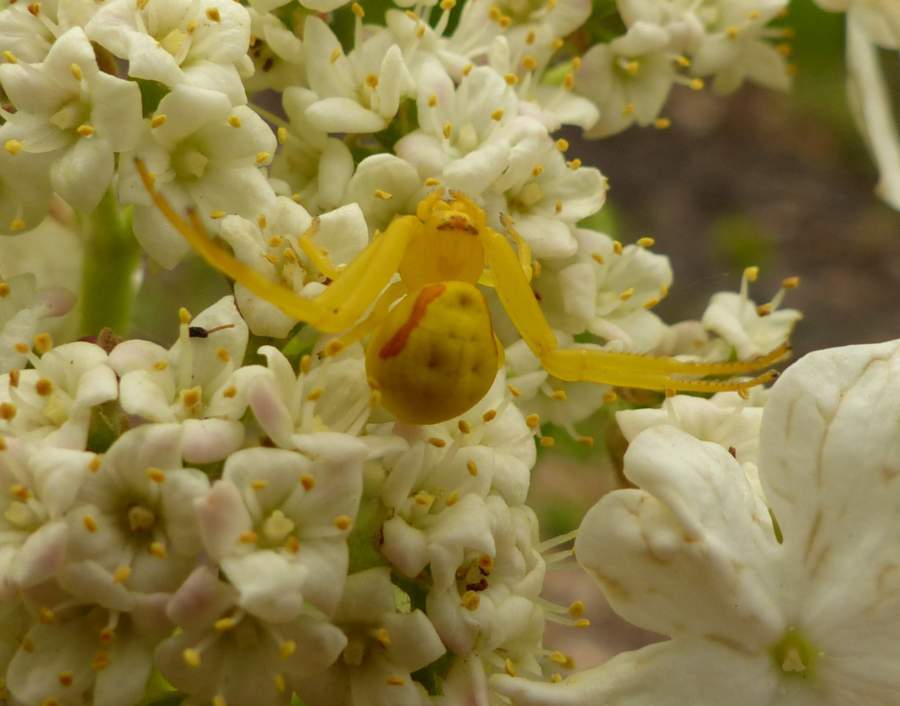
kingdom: Animalia
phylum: Arthropoda
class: Arachnida
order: Araneae
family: Thomisidae
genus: Misumena
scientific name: Misumena vatia
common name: Goldenrod crab spider
